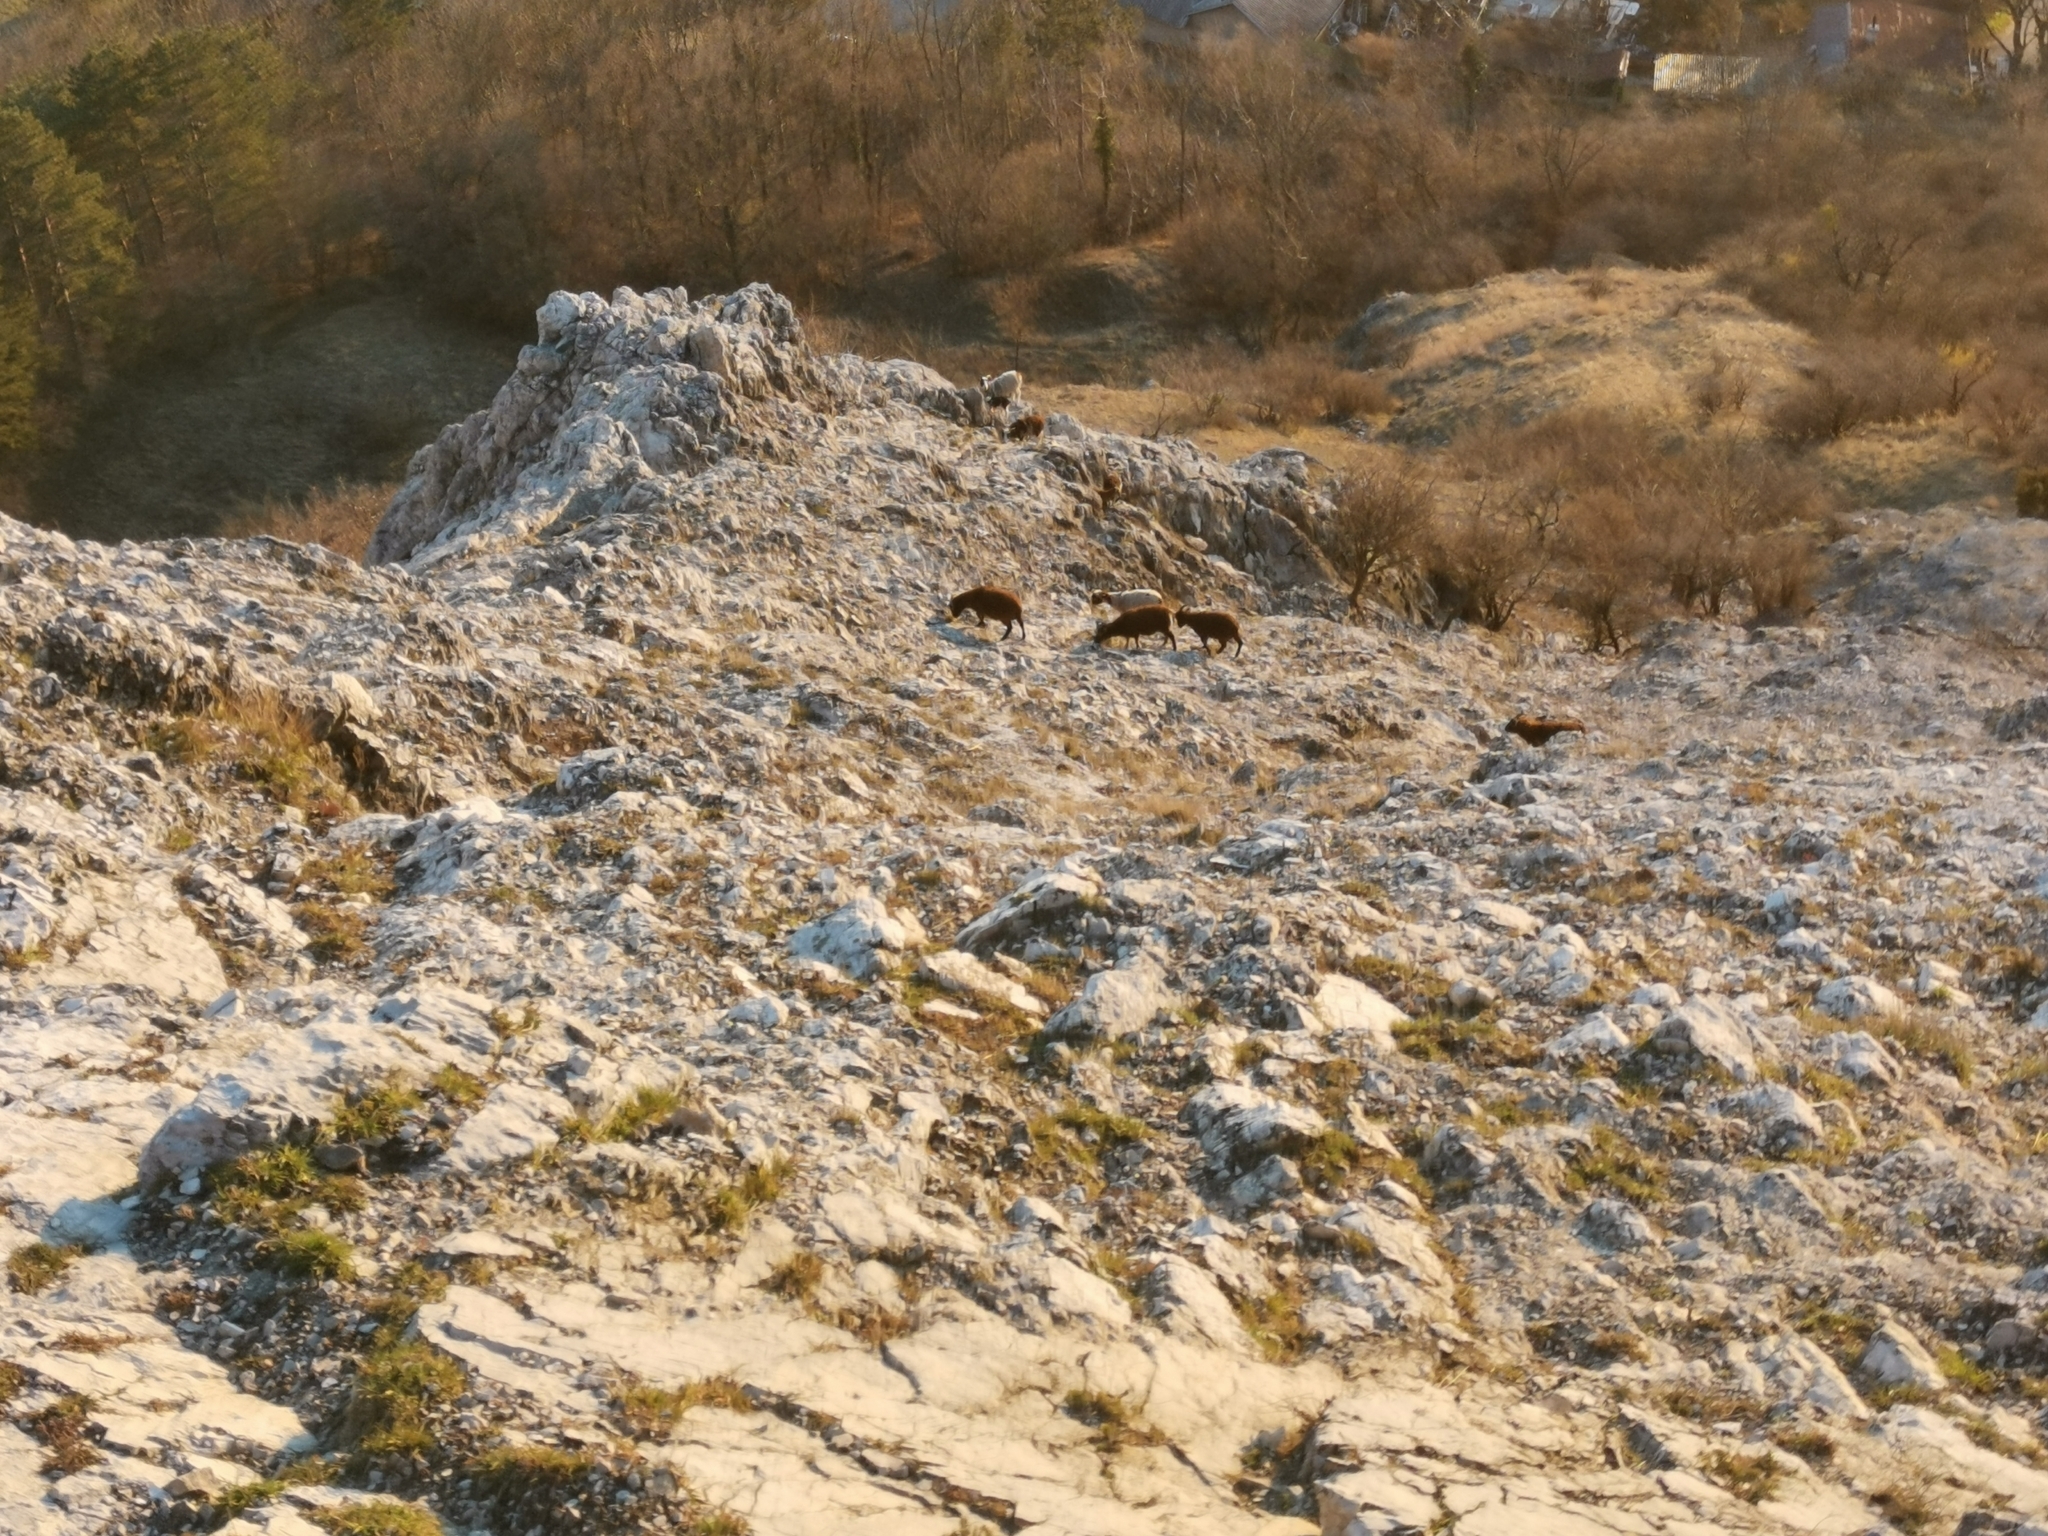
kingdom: Animalia
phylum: Chordata
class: Mammalia
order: Artiodactyla
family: Bovidae
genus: Ovis
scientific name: Ovis aries
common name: Domestic sheep
